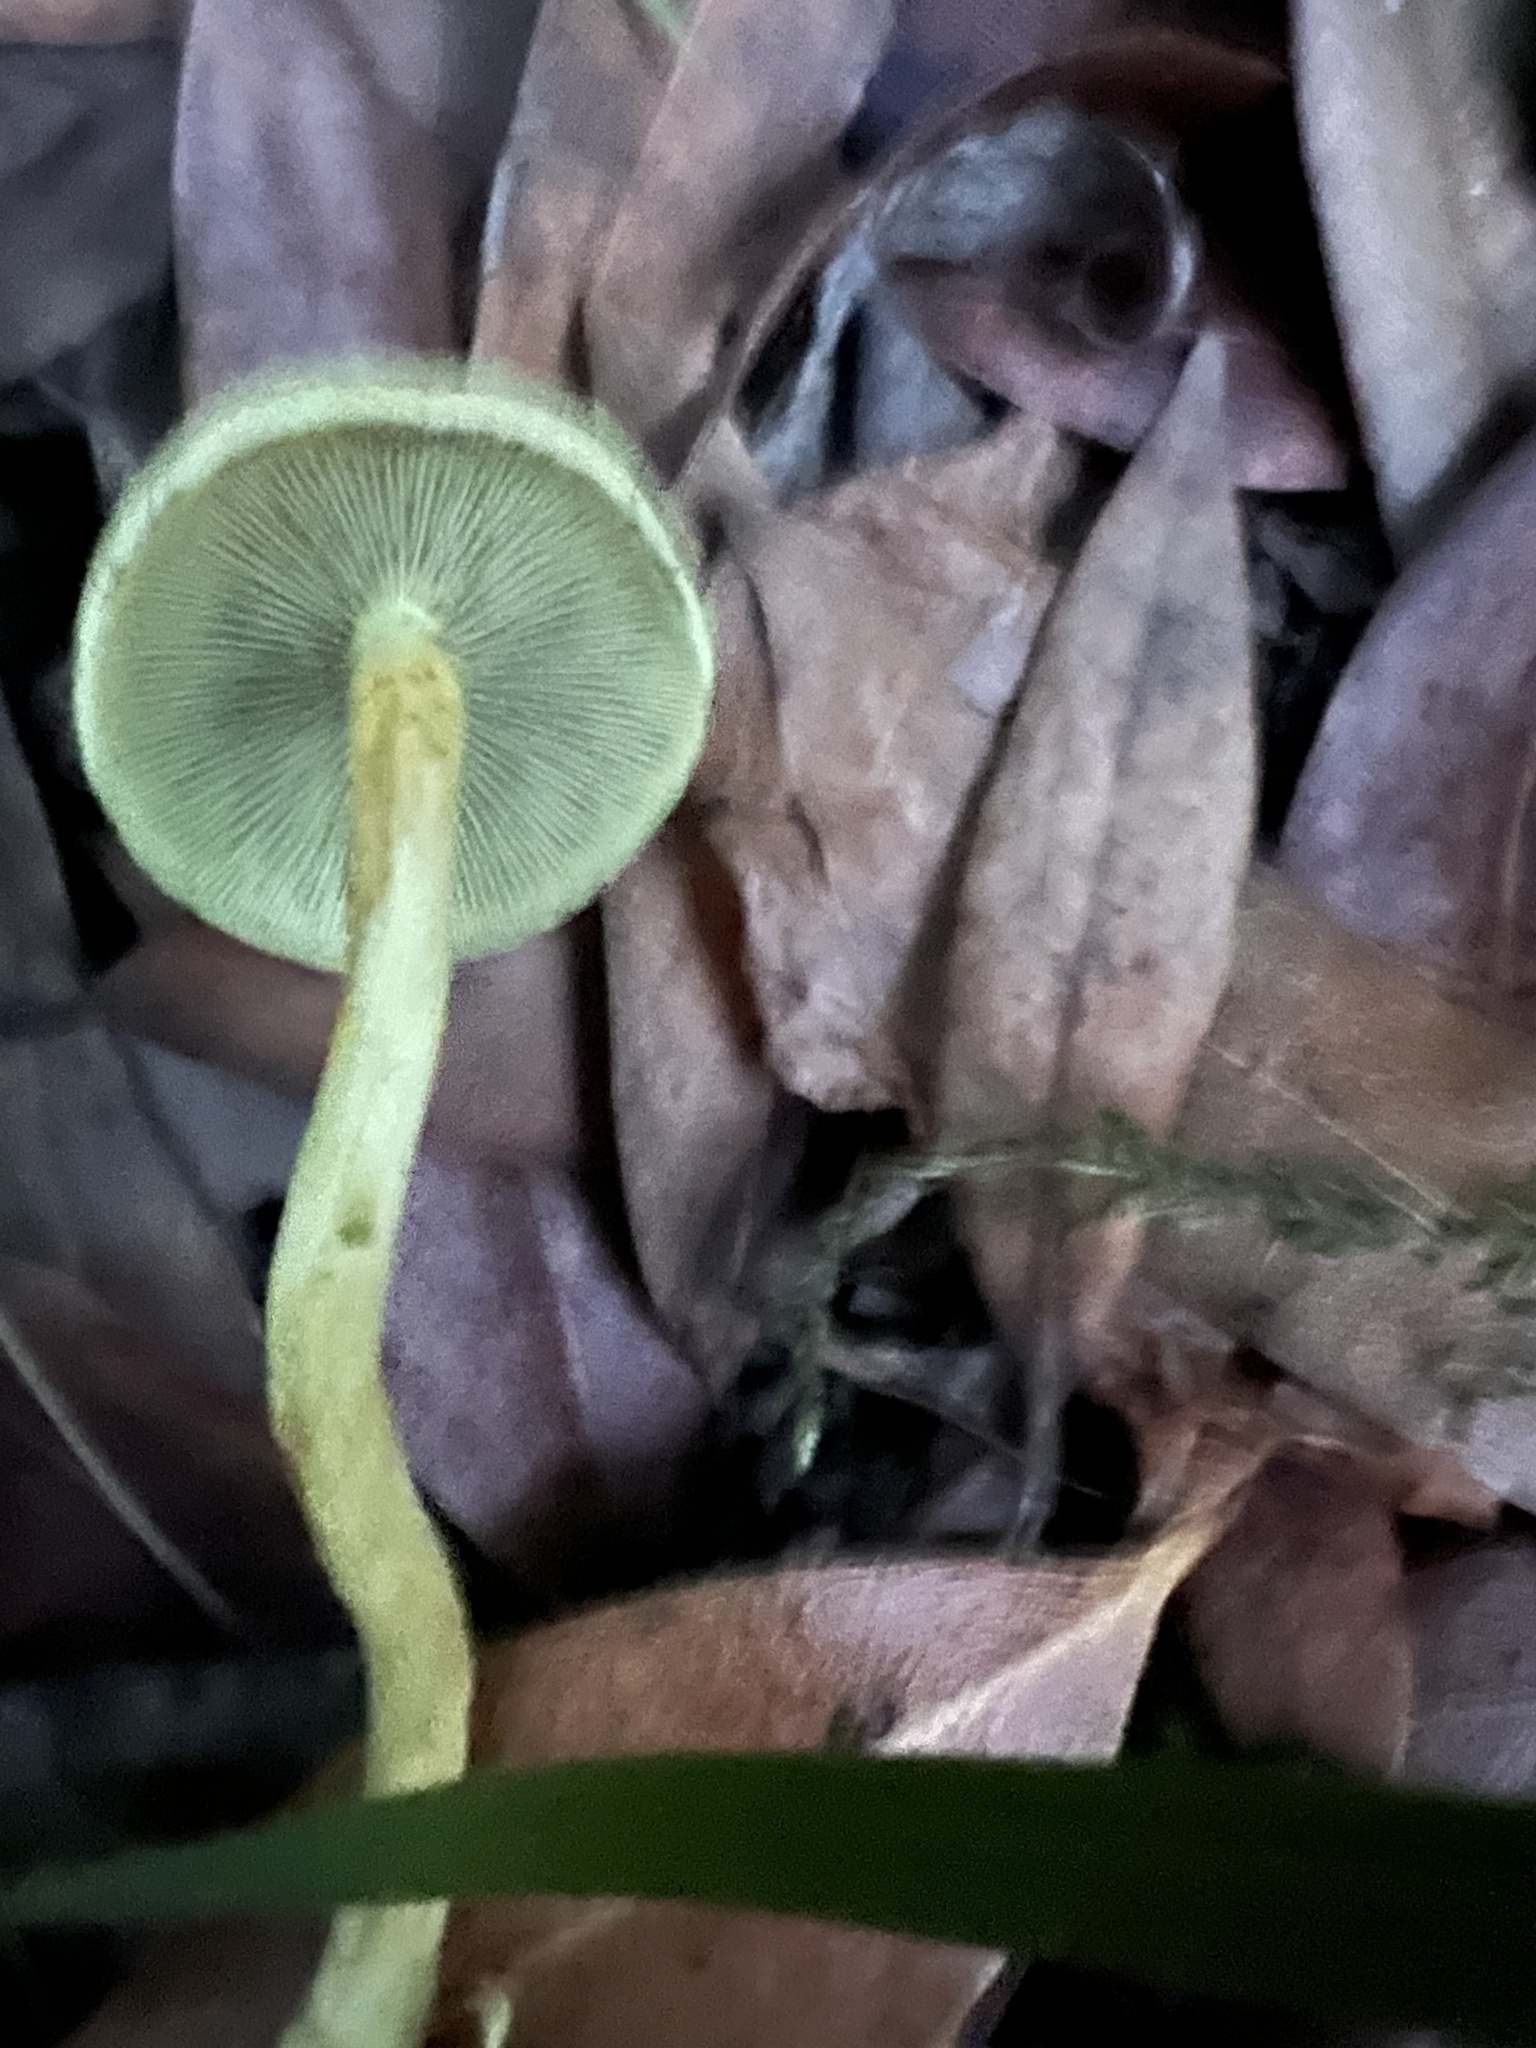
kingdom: Fungi
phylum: Basidiomycota
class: Agaricomycetes
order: Agaricales
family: Strophariaceae
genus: Hypholoma
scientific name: Hypholoma fasciculare
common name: Sulphur tuft
